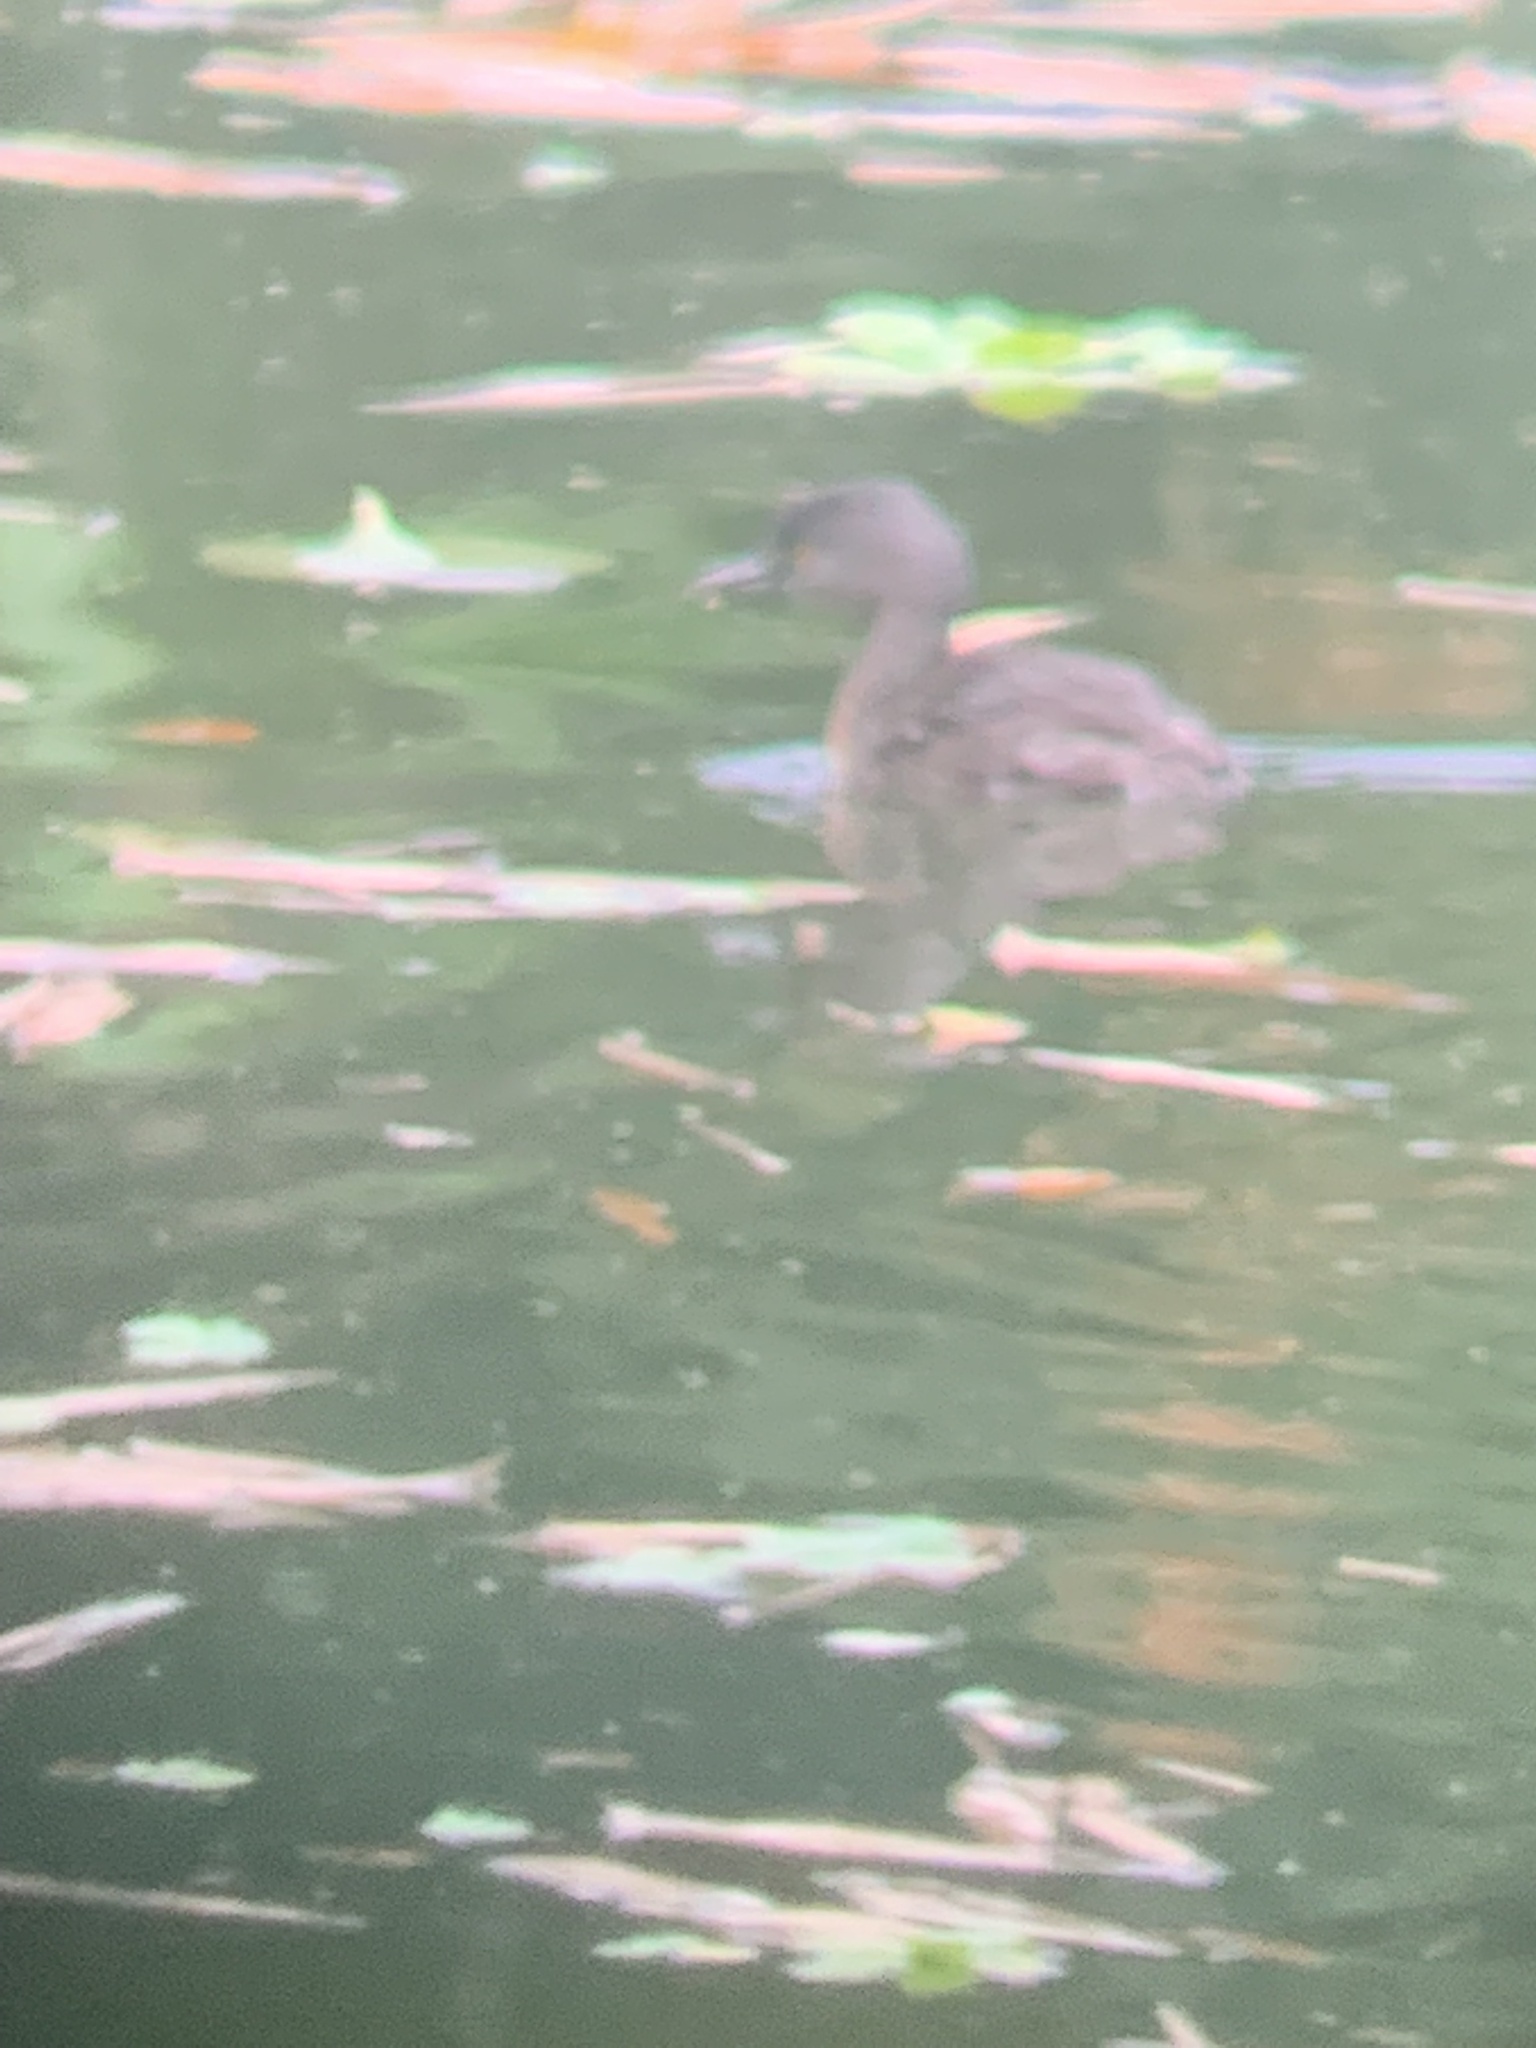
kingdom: Animalia
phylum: Chordata
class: Aves
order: Podicipediformes
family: Podicipedidae
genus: Tachybaptus
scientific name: Tachybaptus dominicus
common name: Least grebe
